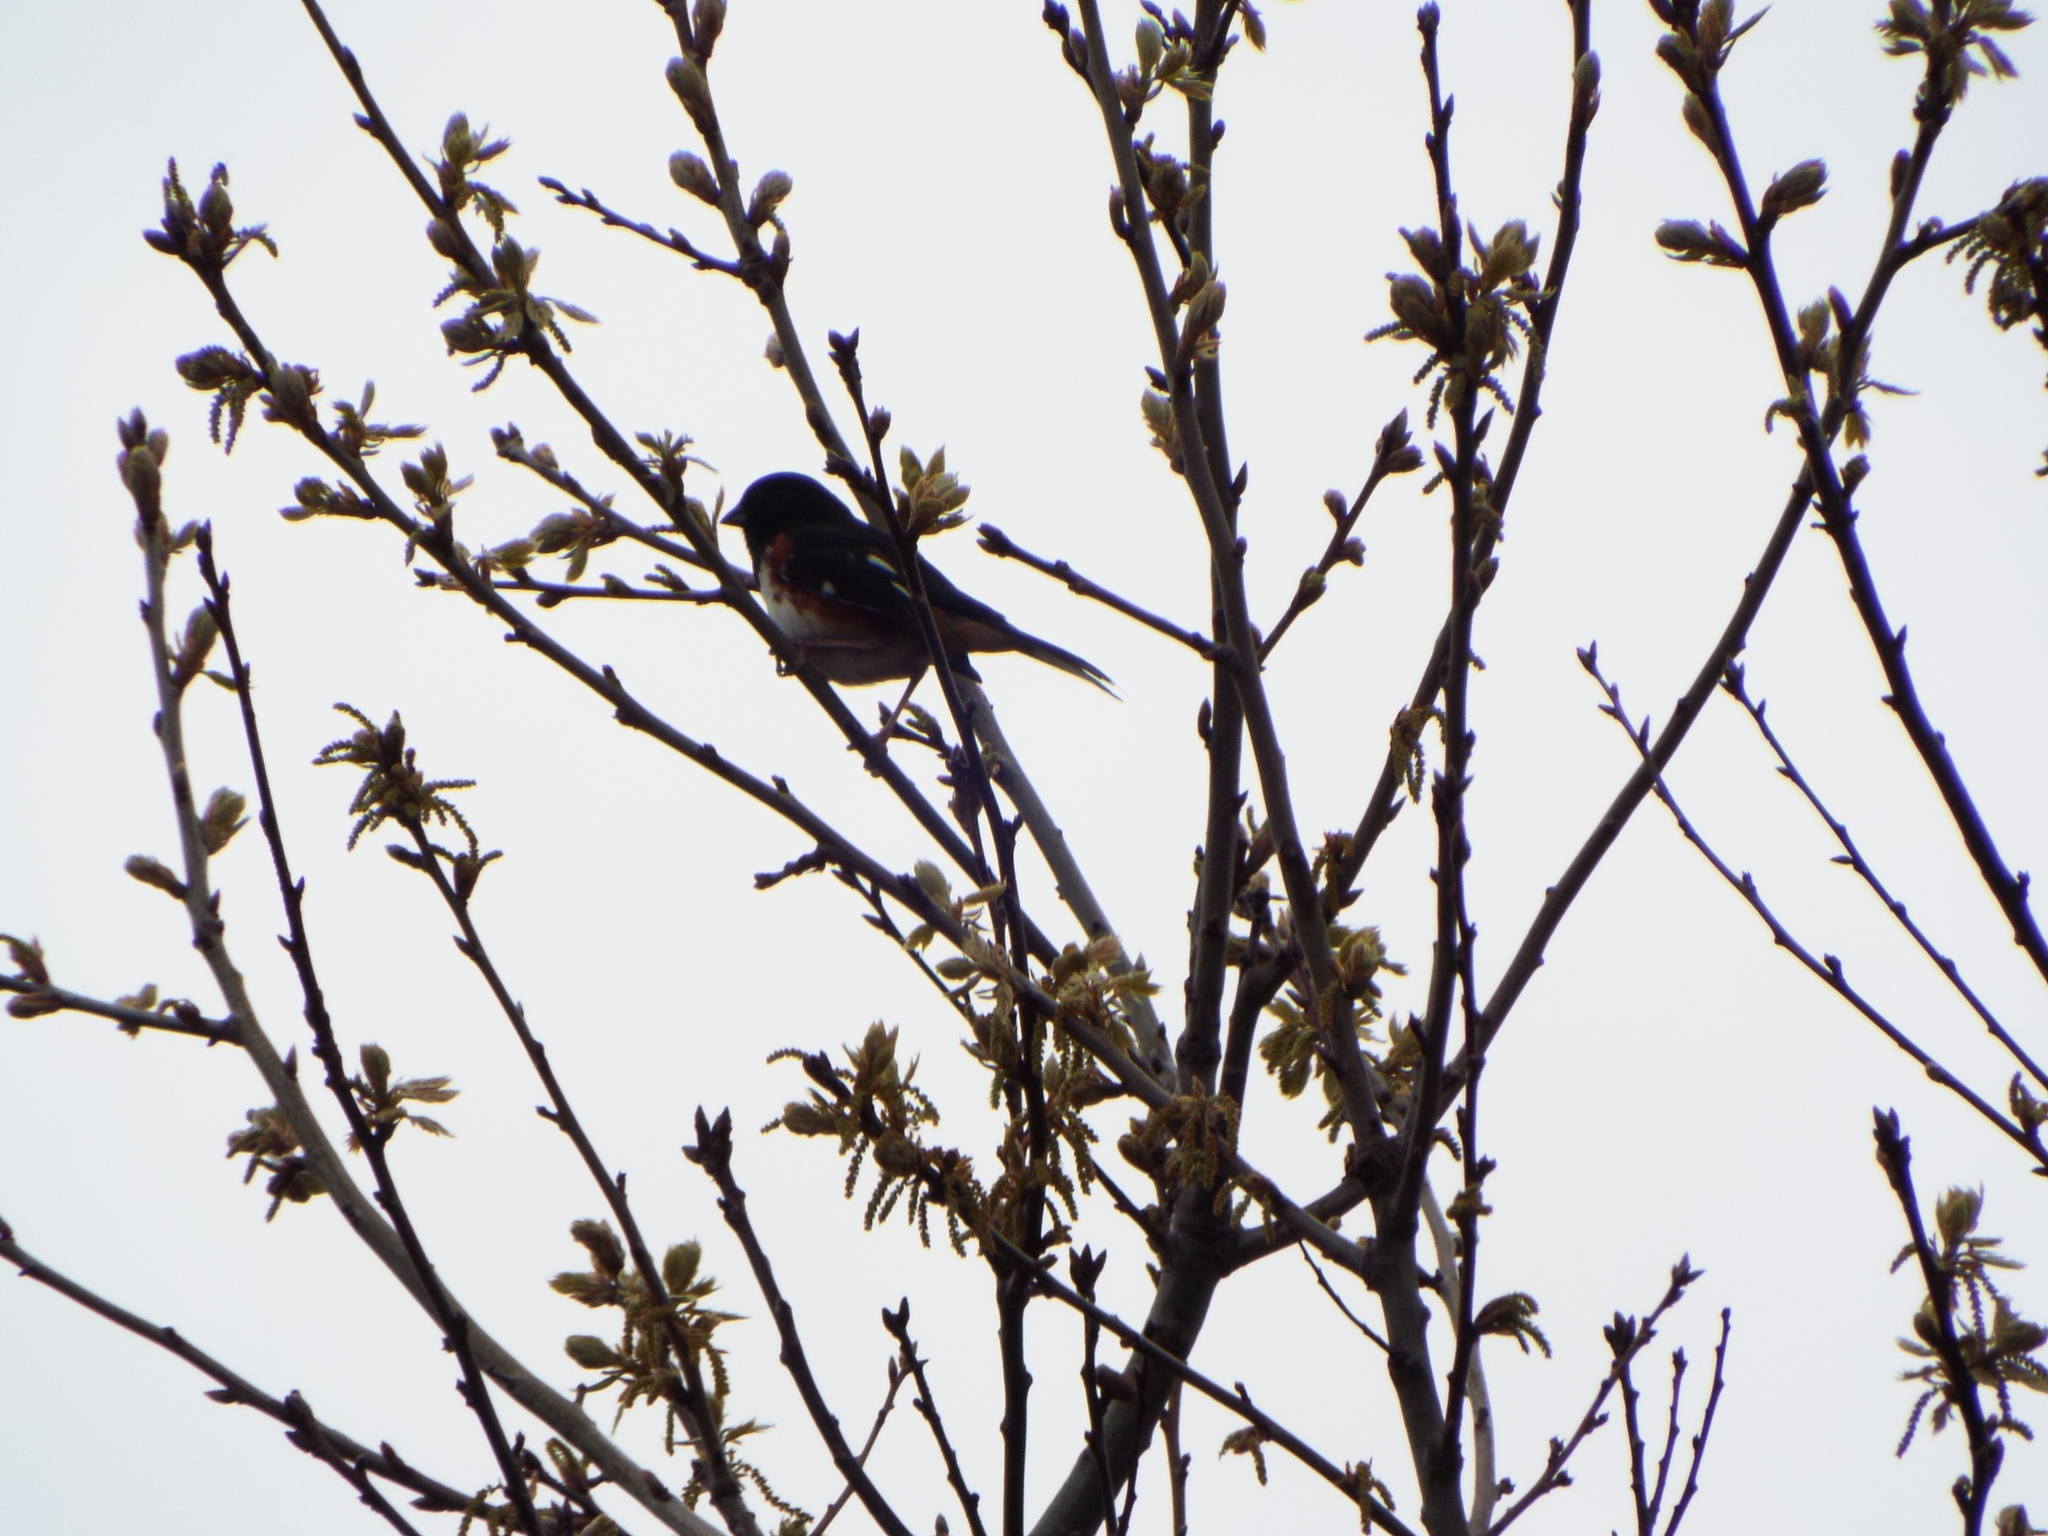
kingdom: Animalia
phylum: Chordata
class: Aves
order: Passeriformes
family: Passerellidae
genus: Pipilo
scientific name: Pipilo erythrophthalmus
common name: Eastern towhee
